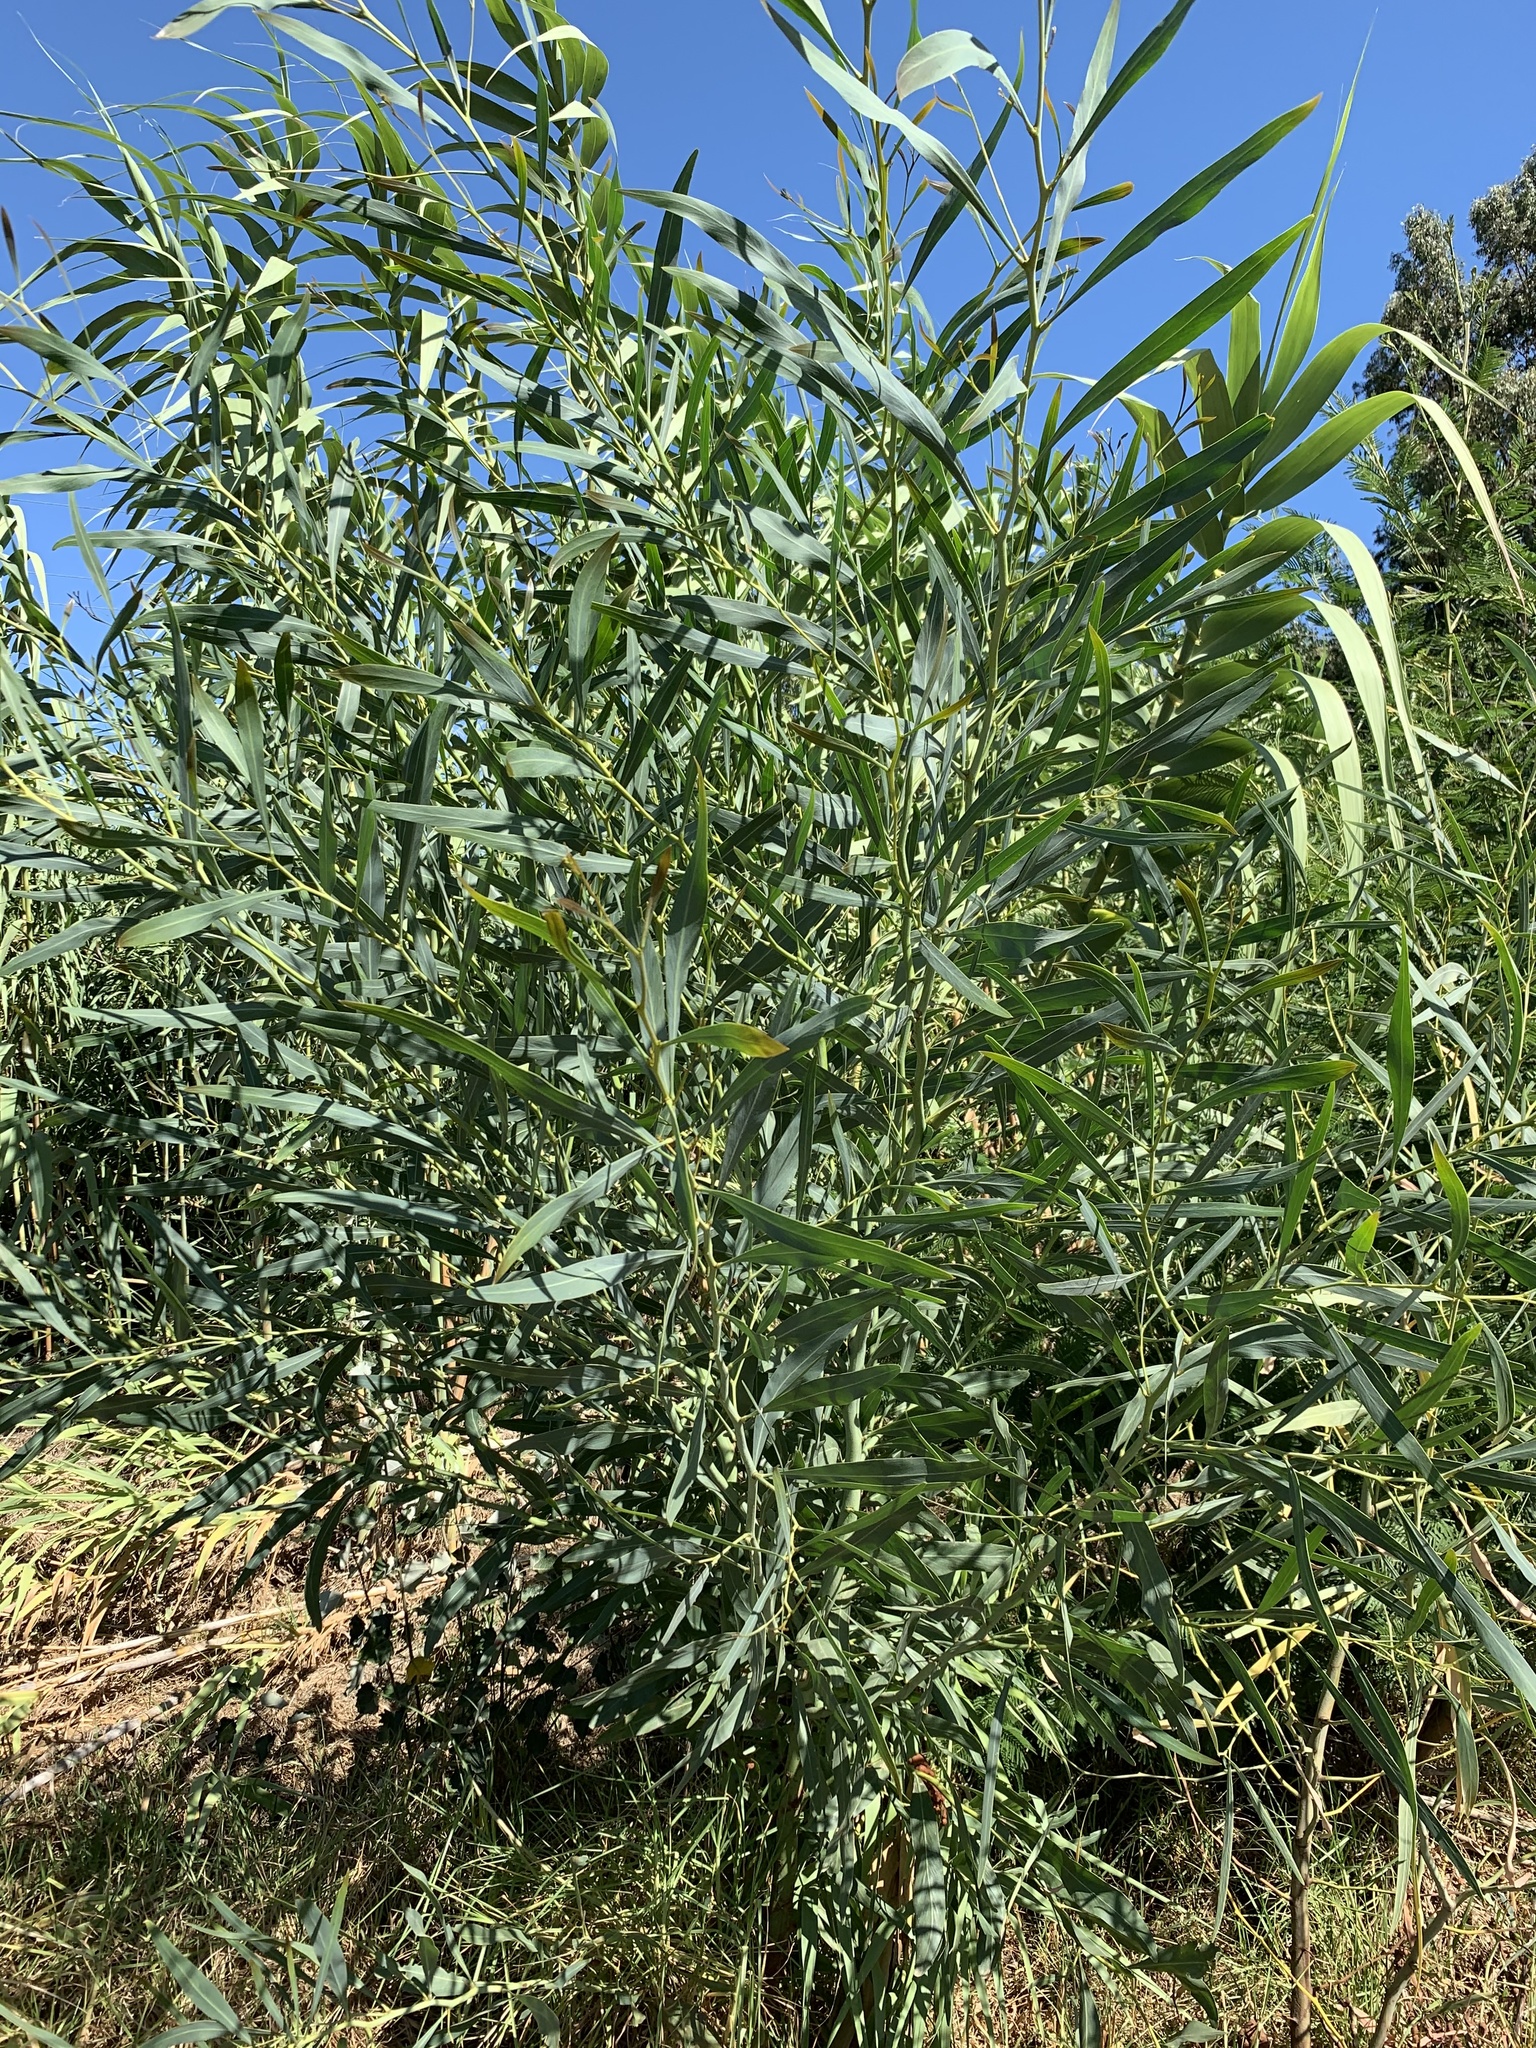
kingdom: Plantae
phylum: Tracheophyta
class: Magnoliopsida
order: Fabales
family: Fabaceae
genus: Acacia
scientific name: Acacia saligna
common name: Orange wattle
